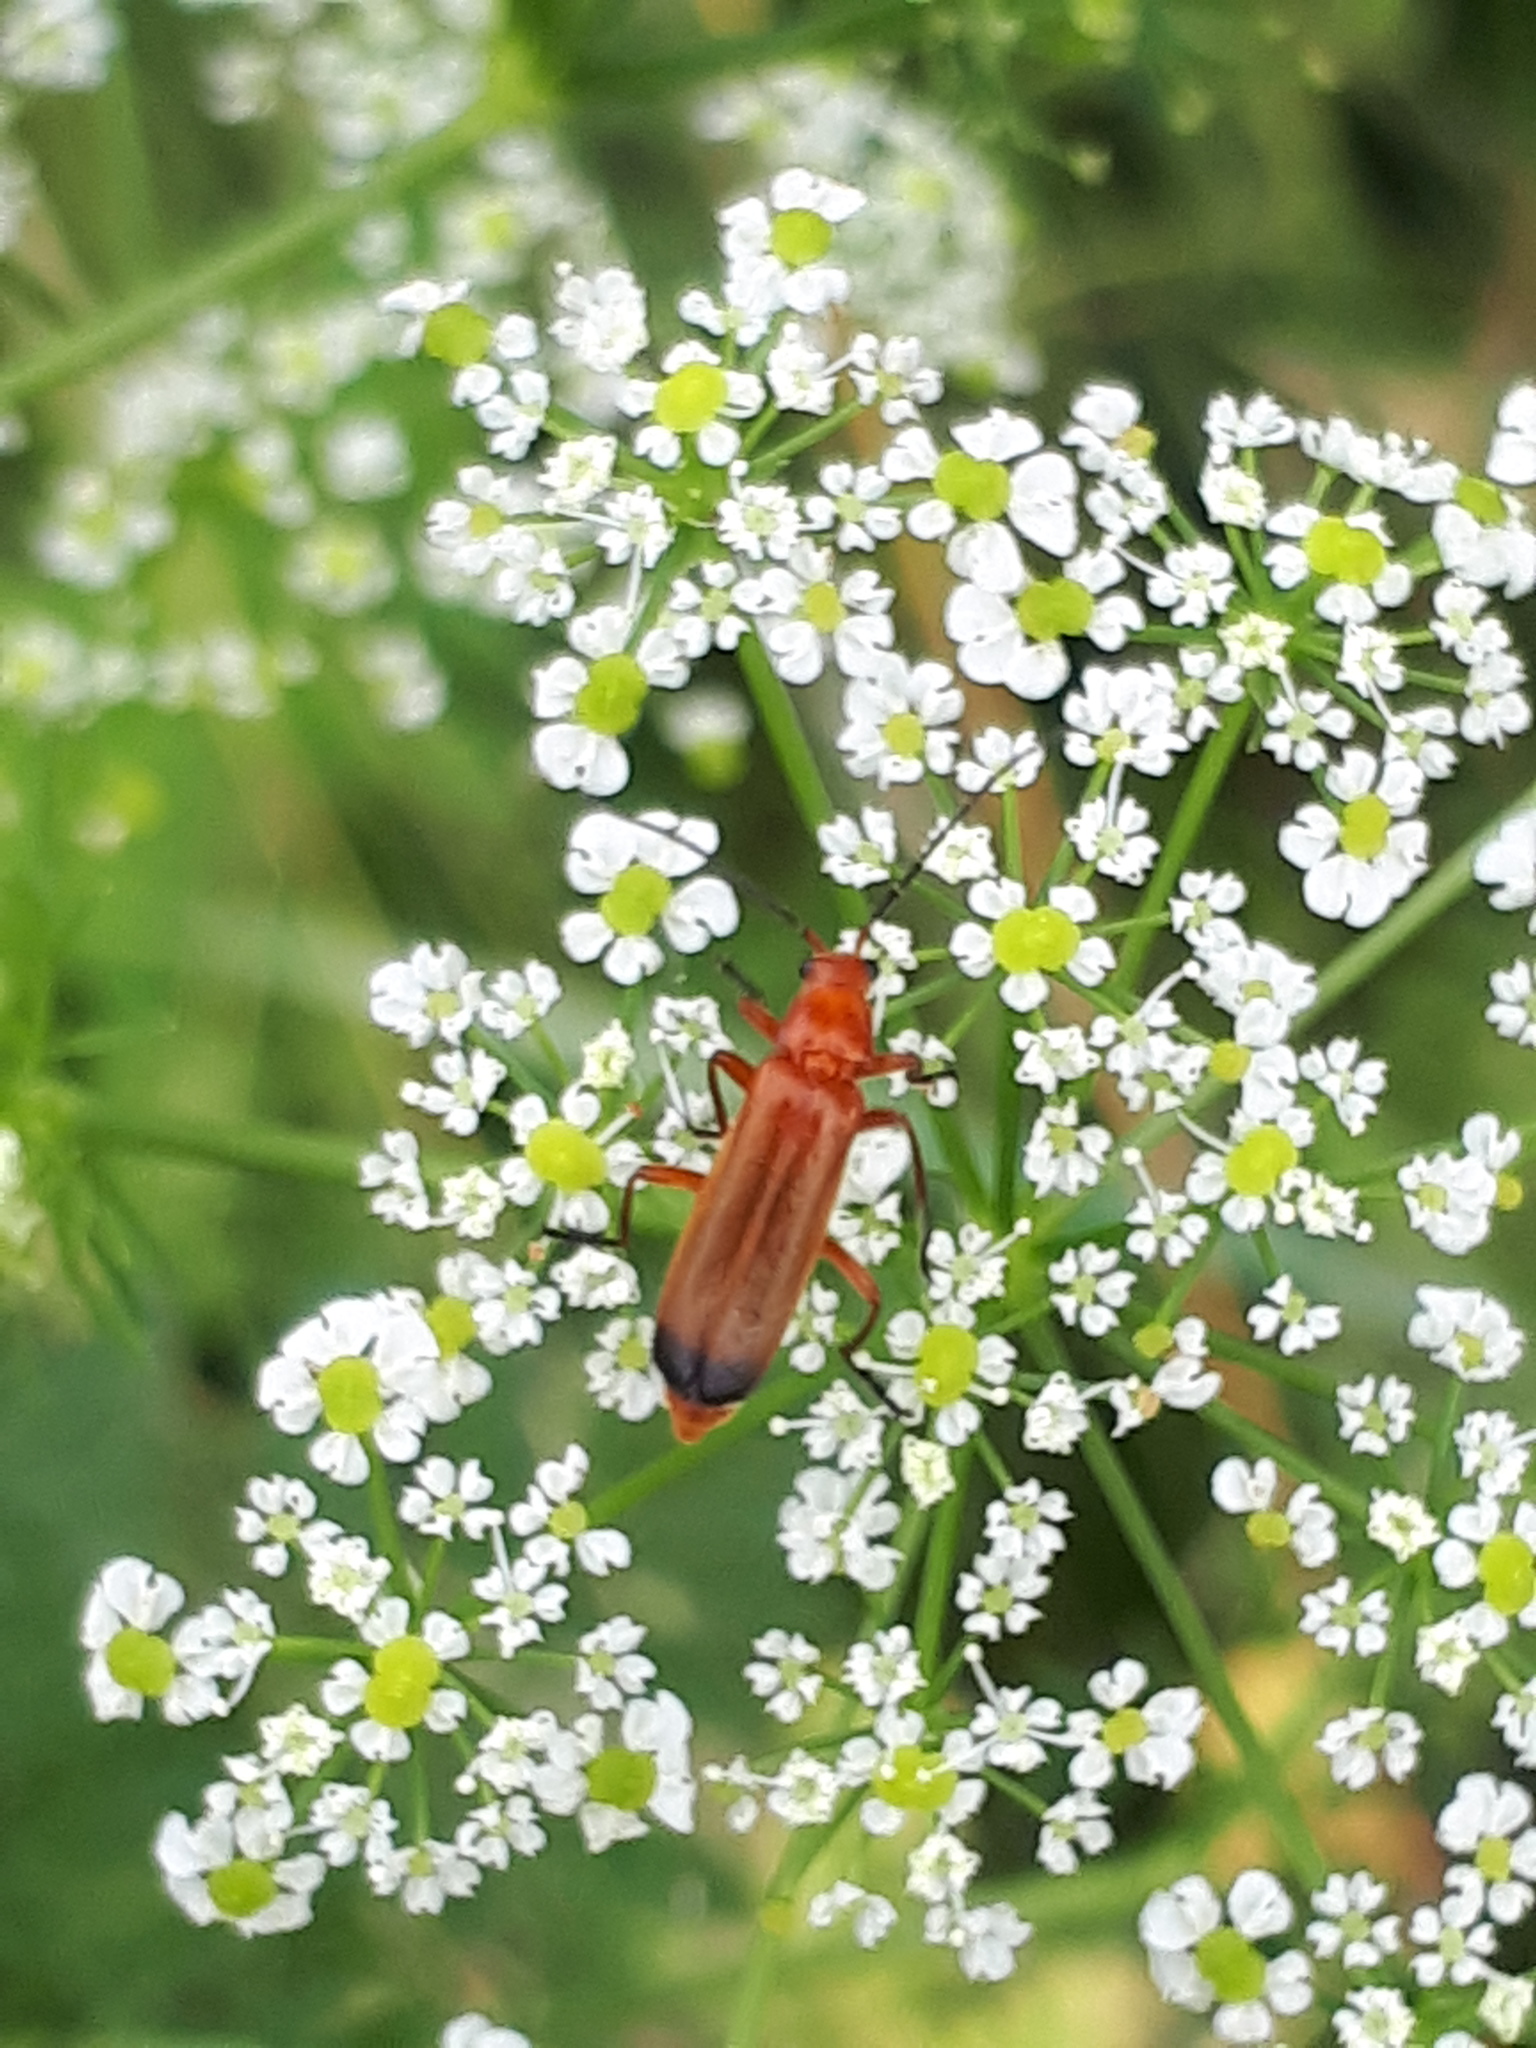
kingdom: Animalia
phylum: Arthropoda
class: Insecta
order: Coleoptera
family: Cantharidae
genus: Rhagonycha
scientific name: Rhagonycha fulva
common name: Common red soldier beetle
